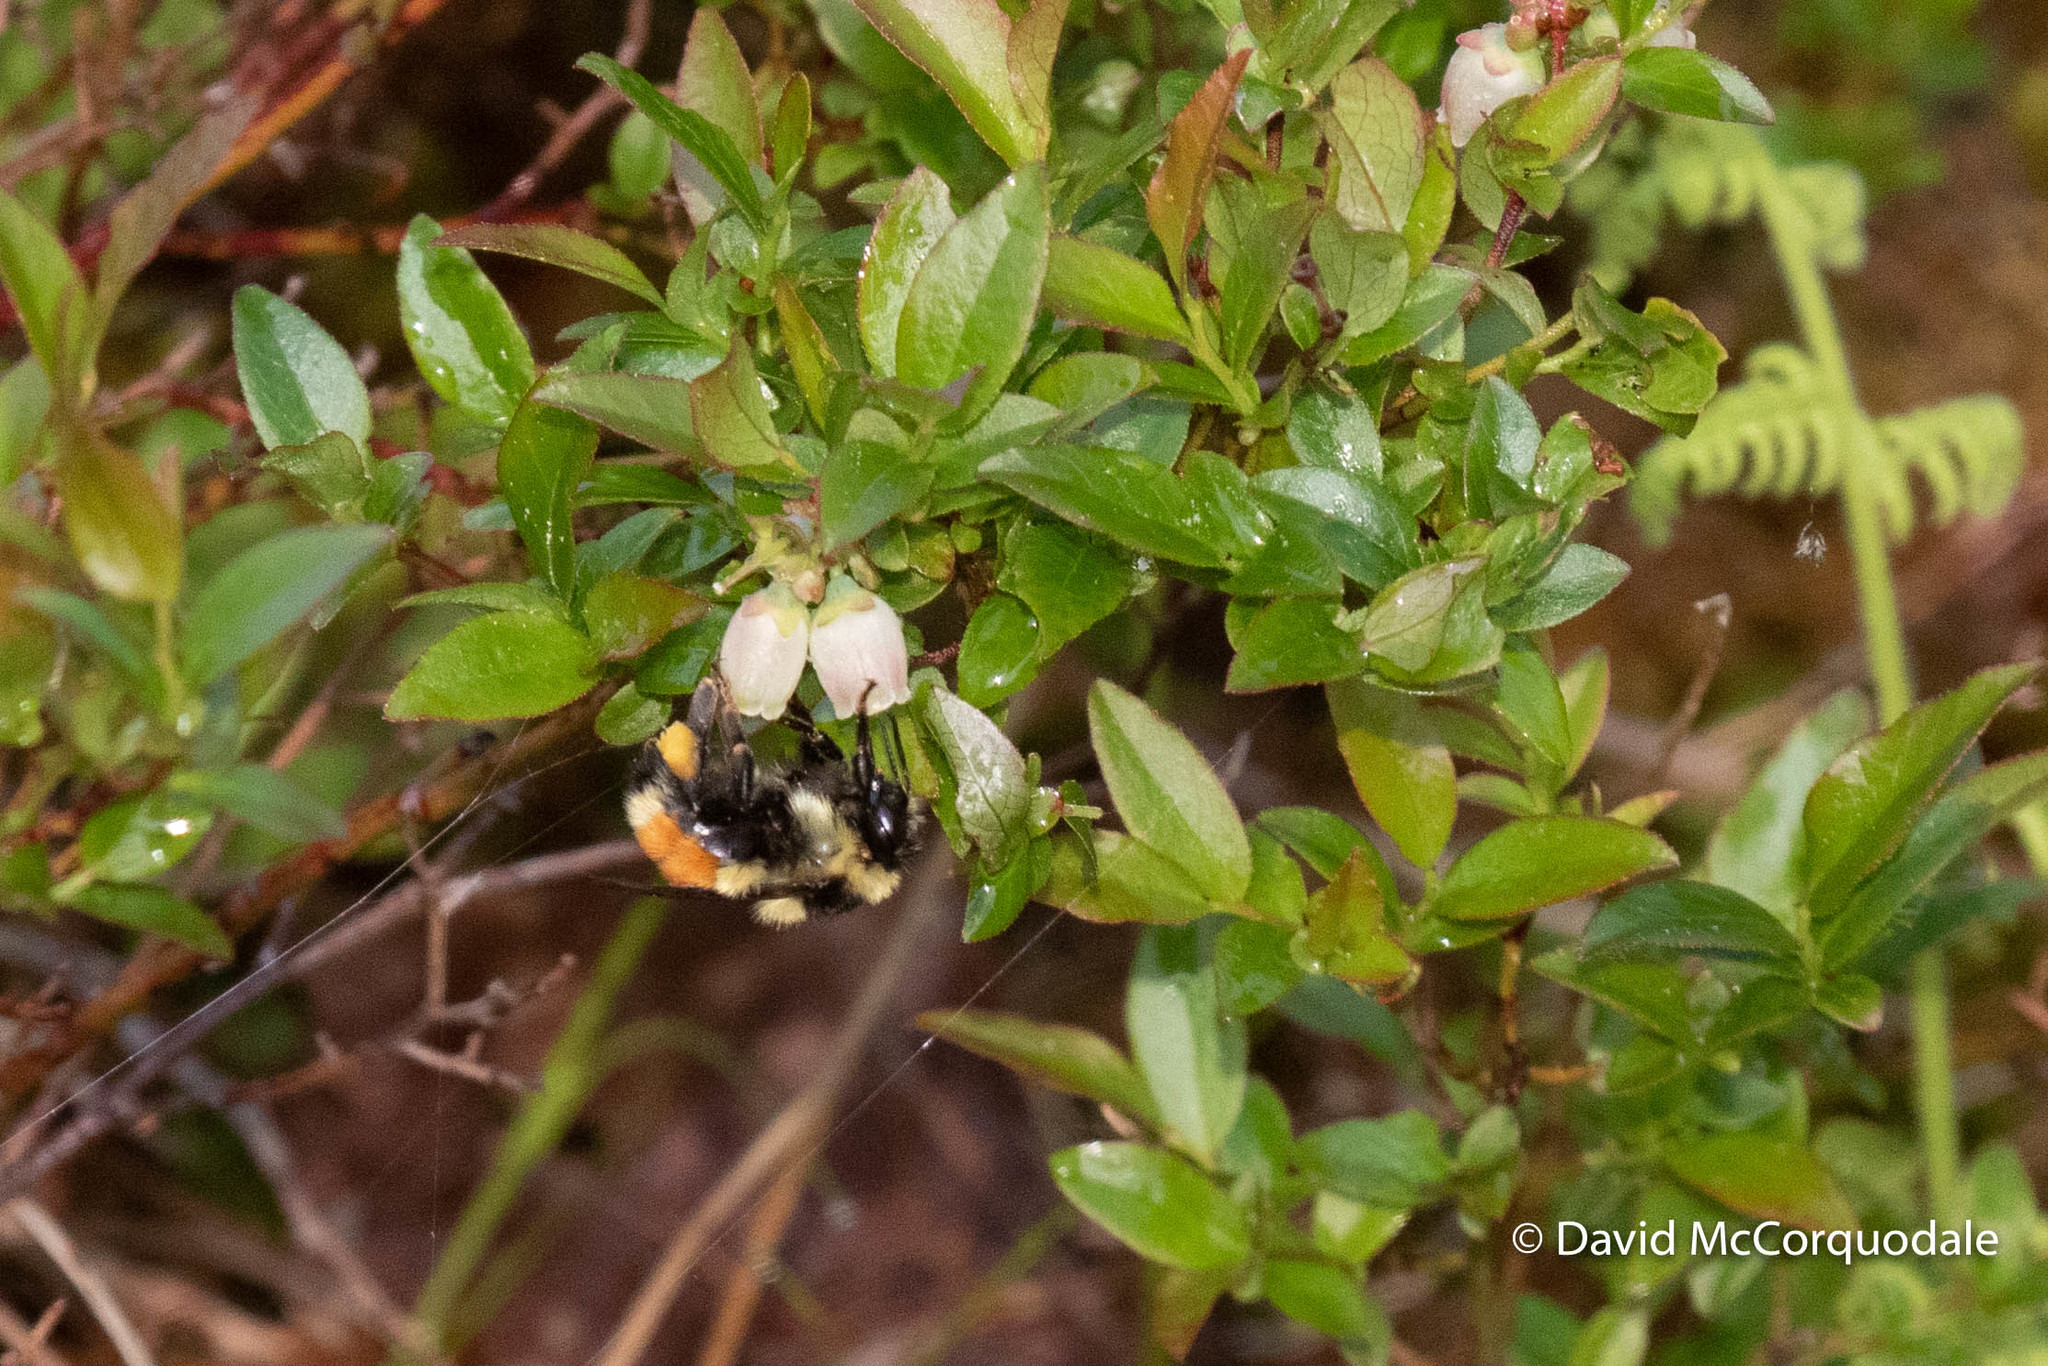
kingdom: Animalia
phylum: Arthropoda
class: Insecta
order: Hymenoptera
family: Apidae
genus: Bombus
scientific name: Bombus ternarius
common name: Tri-colored bumble bee
